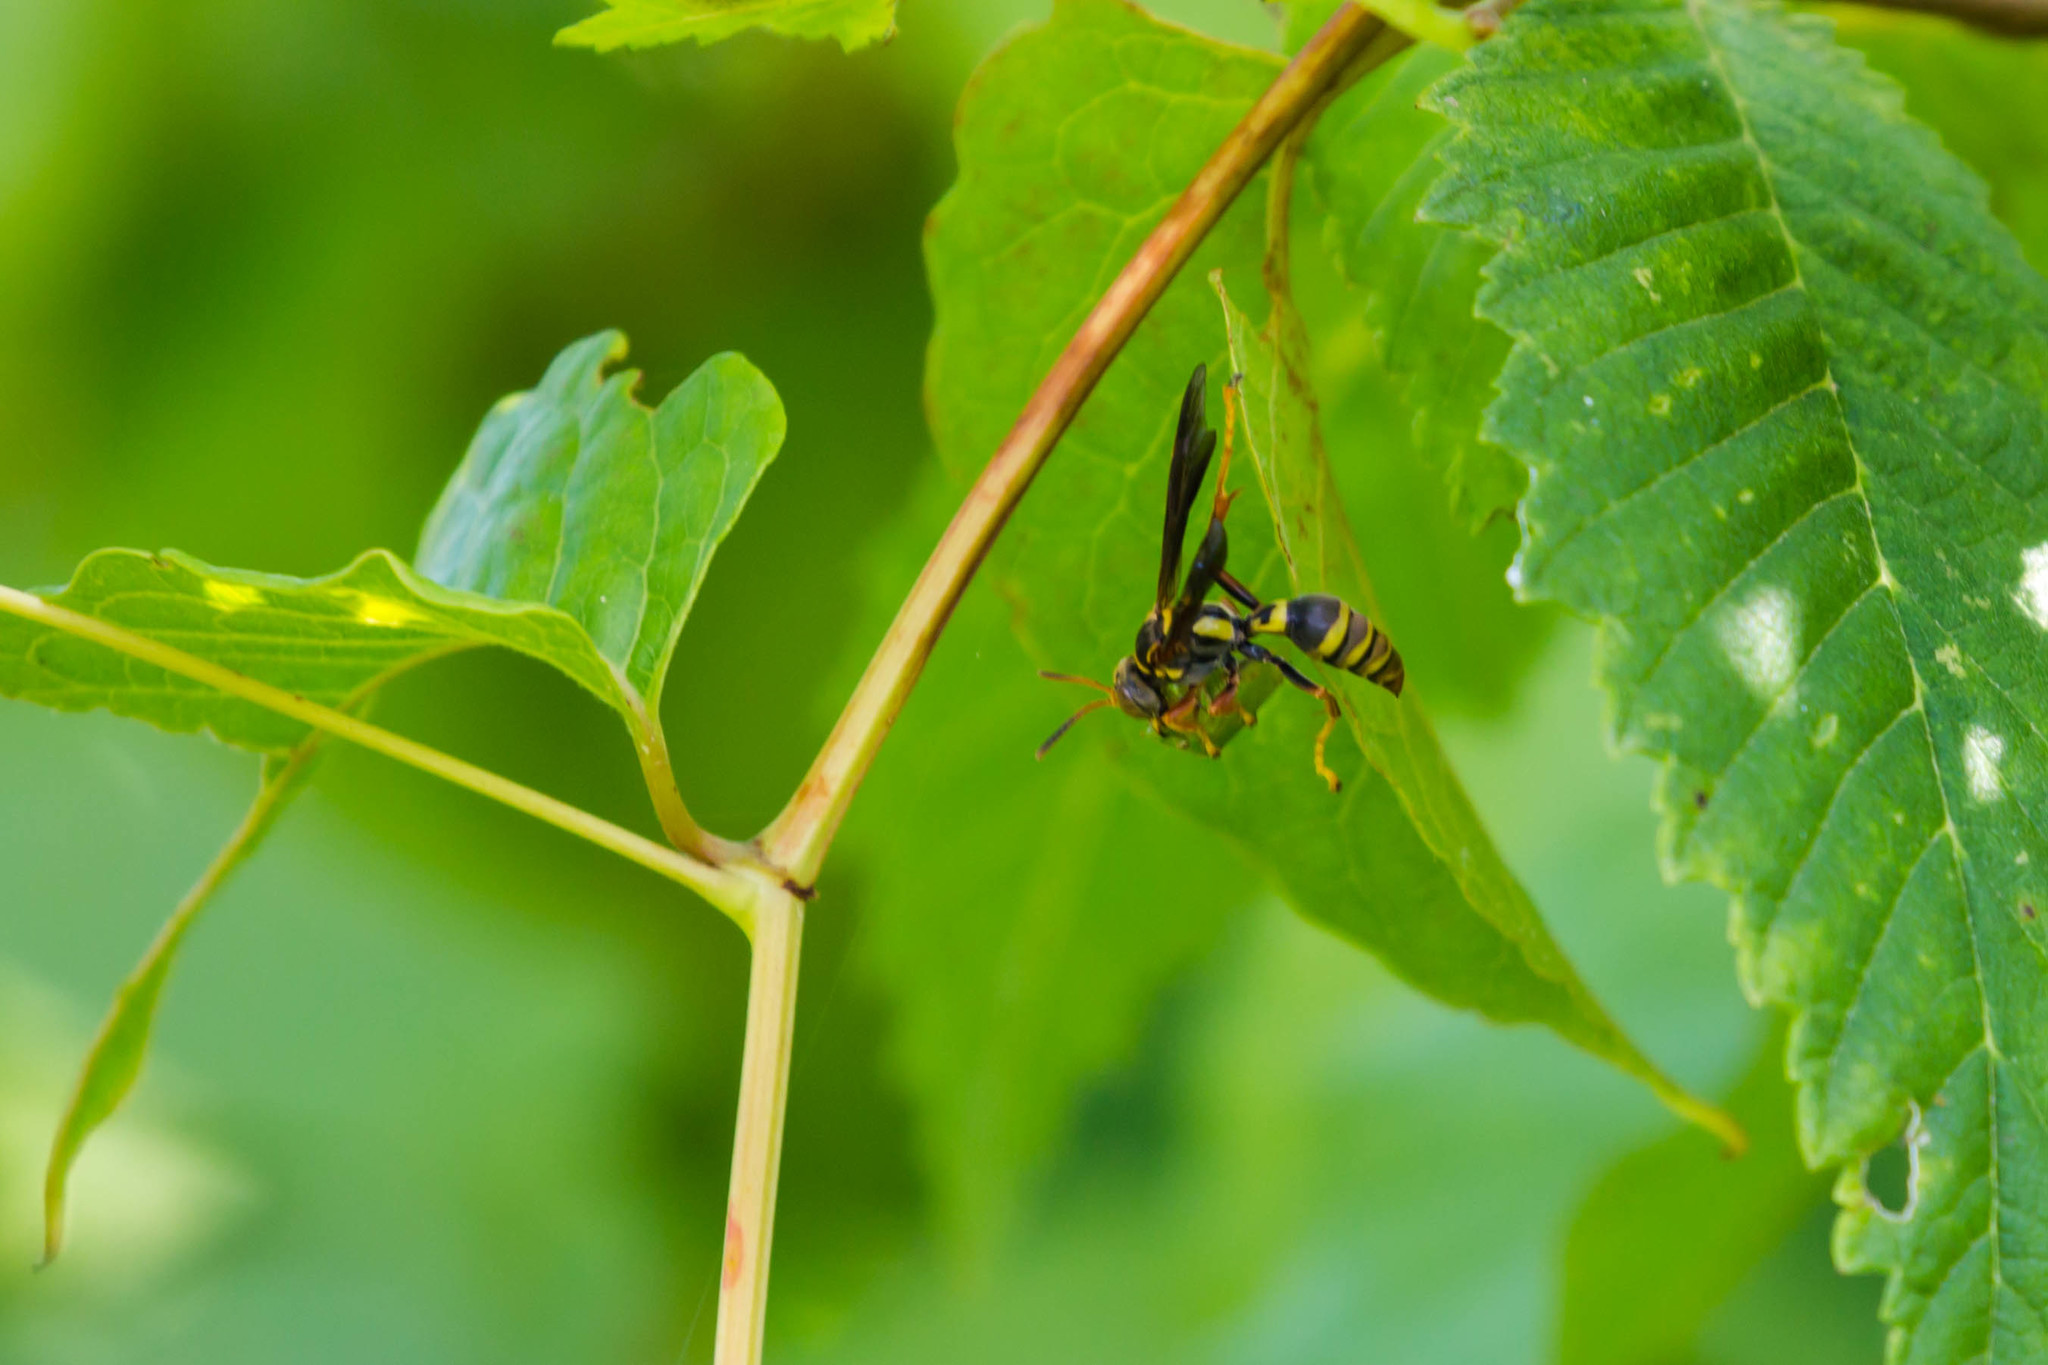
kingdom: Animalia
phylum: Arthropoda
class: Insecta
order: Hymenoptera
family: Crabronidae
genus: Saygorytes
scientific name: Saygorytes phaleratus
